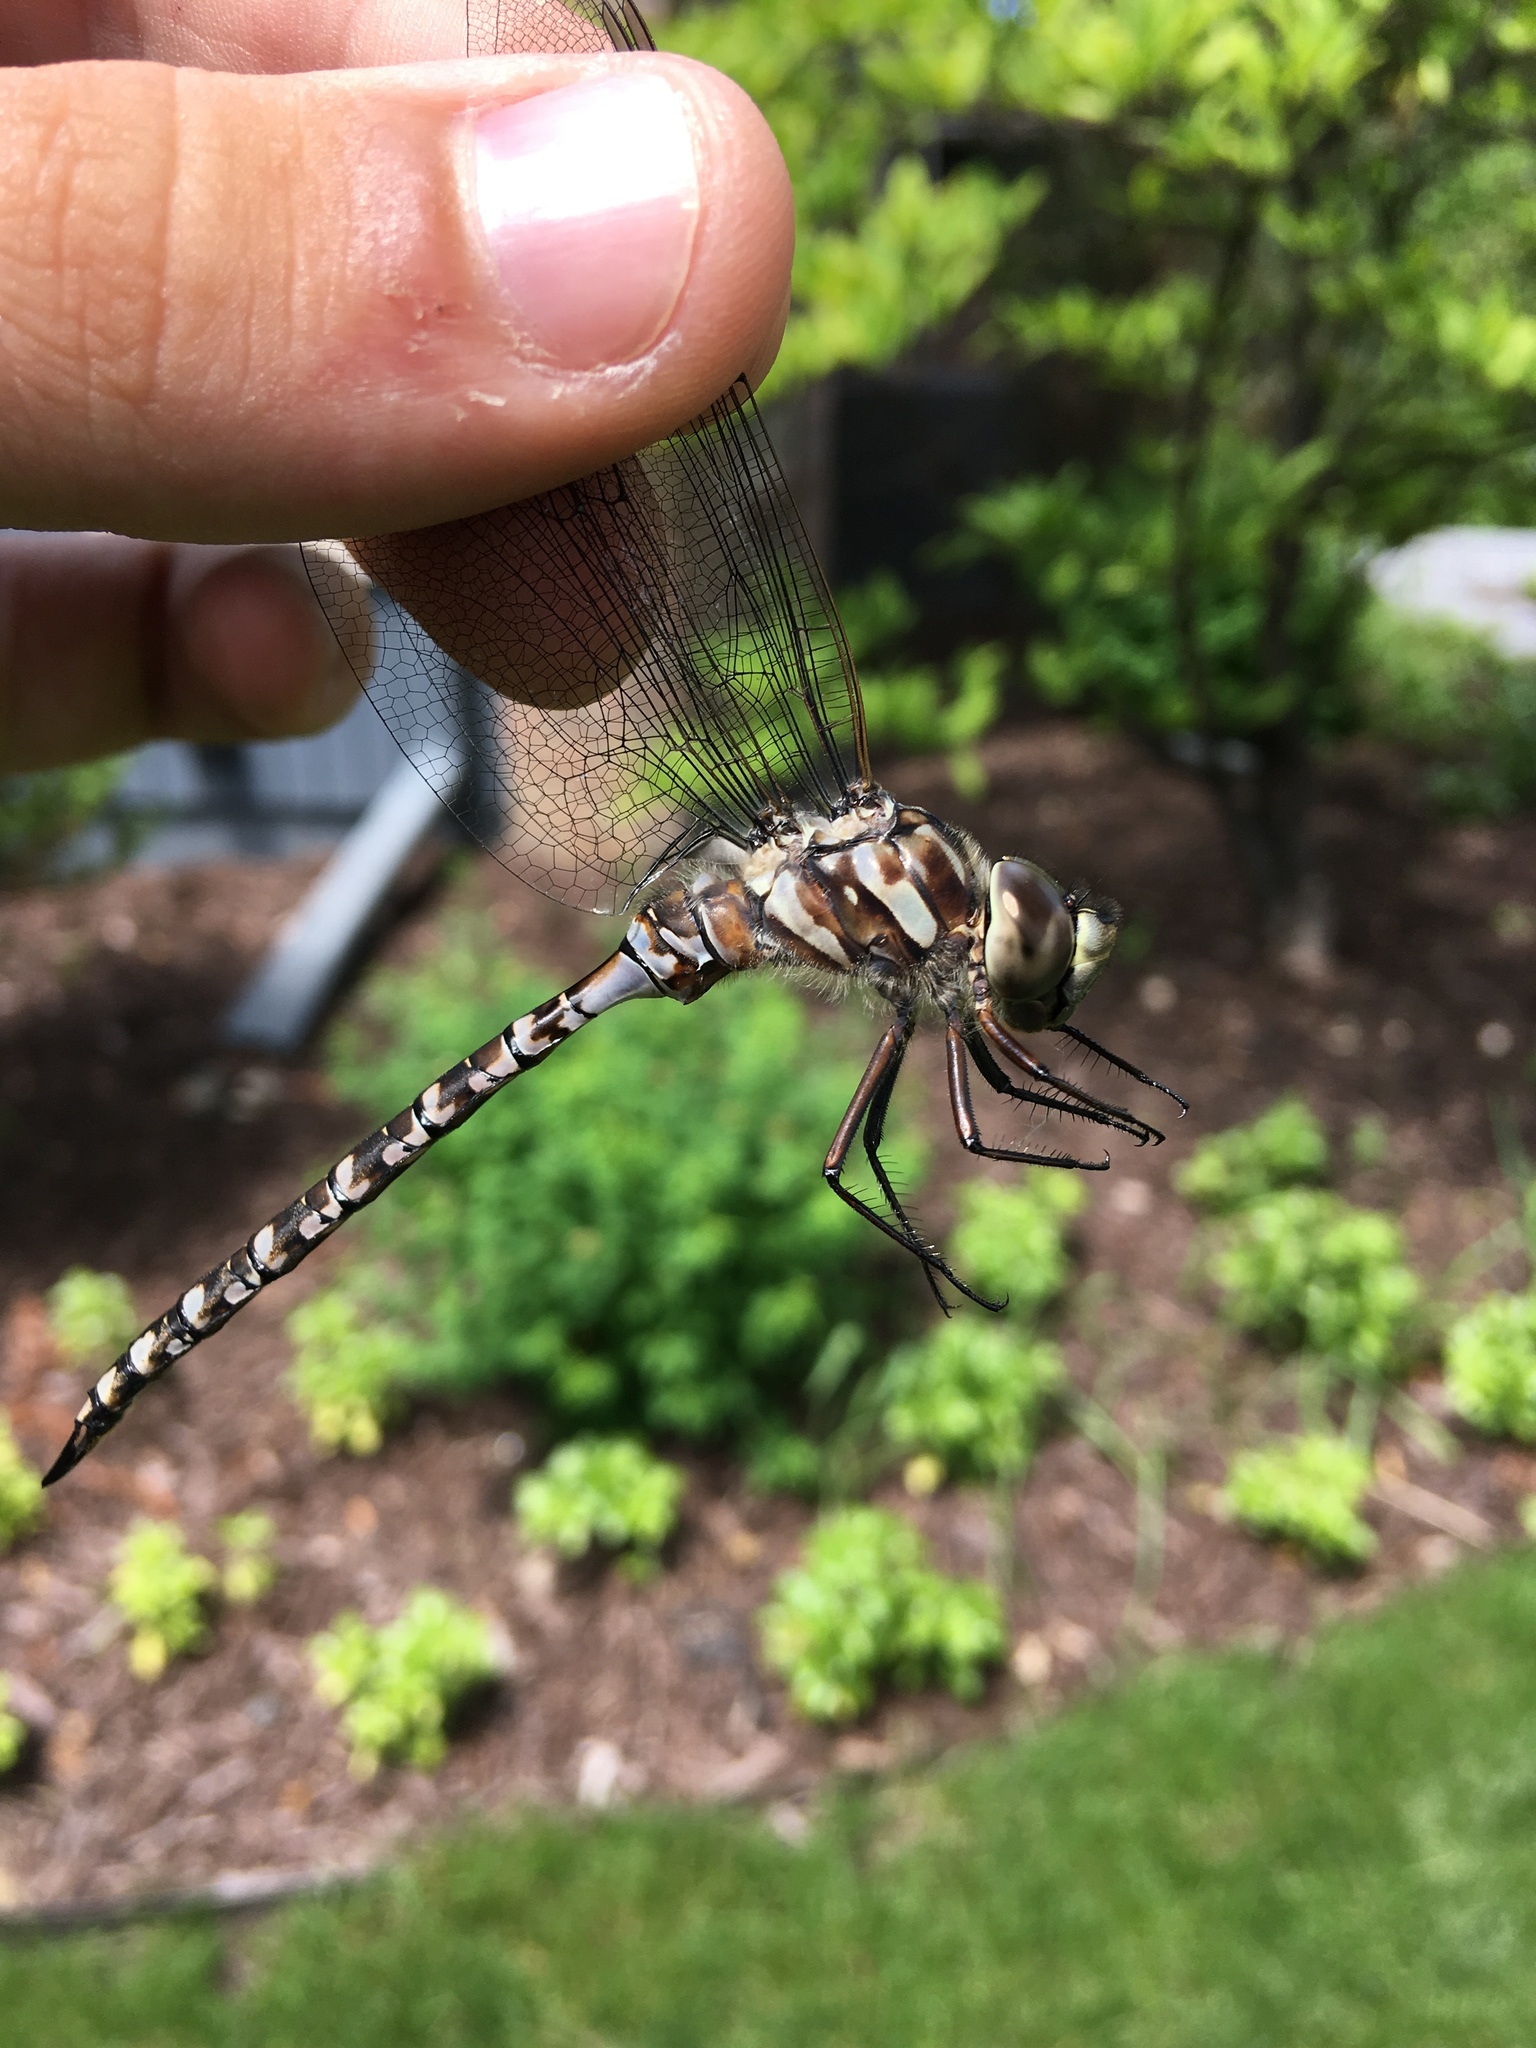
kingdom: Animalia
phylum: Arthropoda
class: Insecta
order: Odonata
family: Aeshnidae
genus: Aeshna
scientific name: Aeshna canadensis
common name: Canada darner
